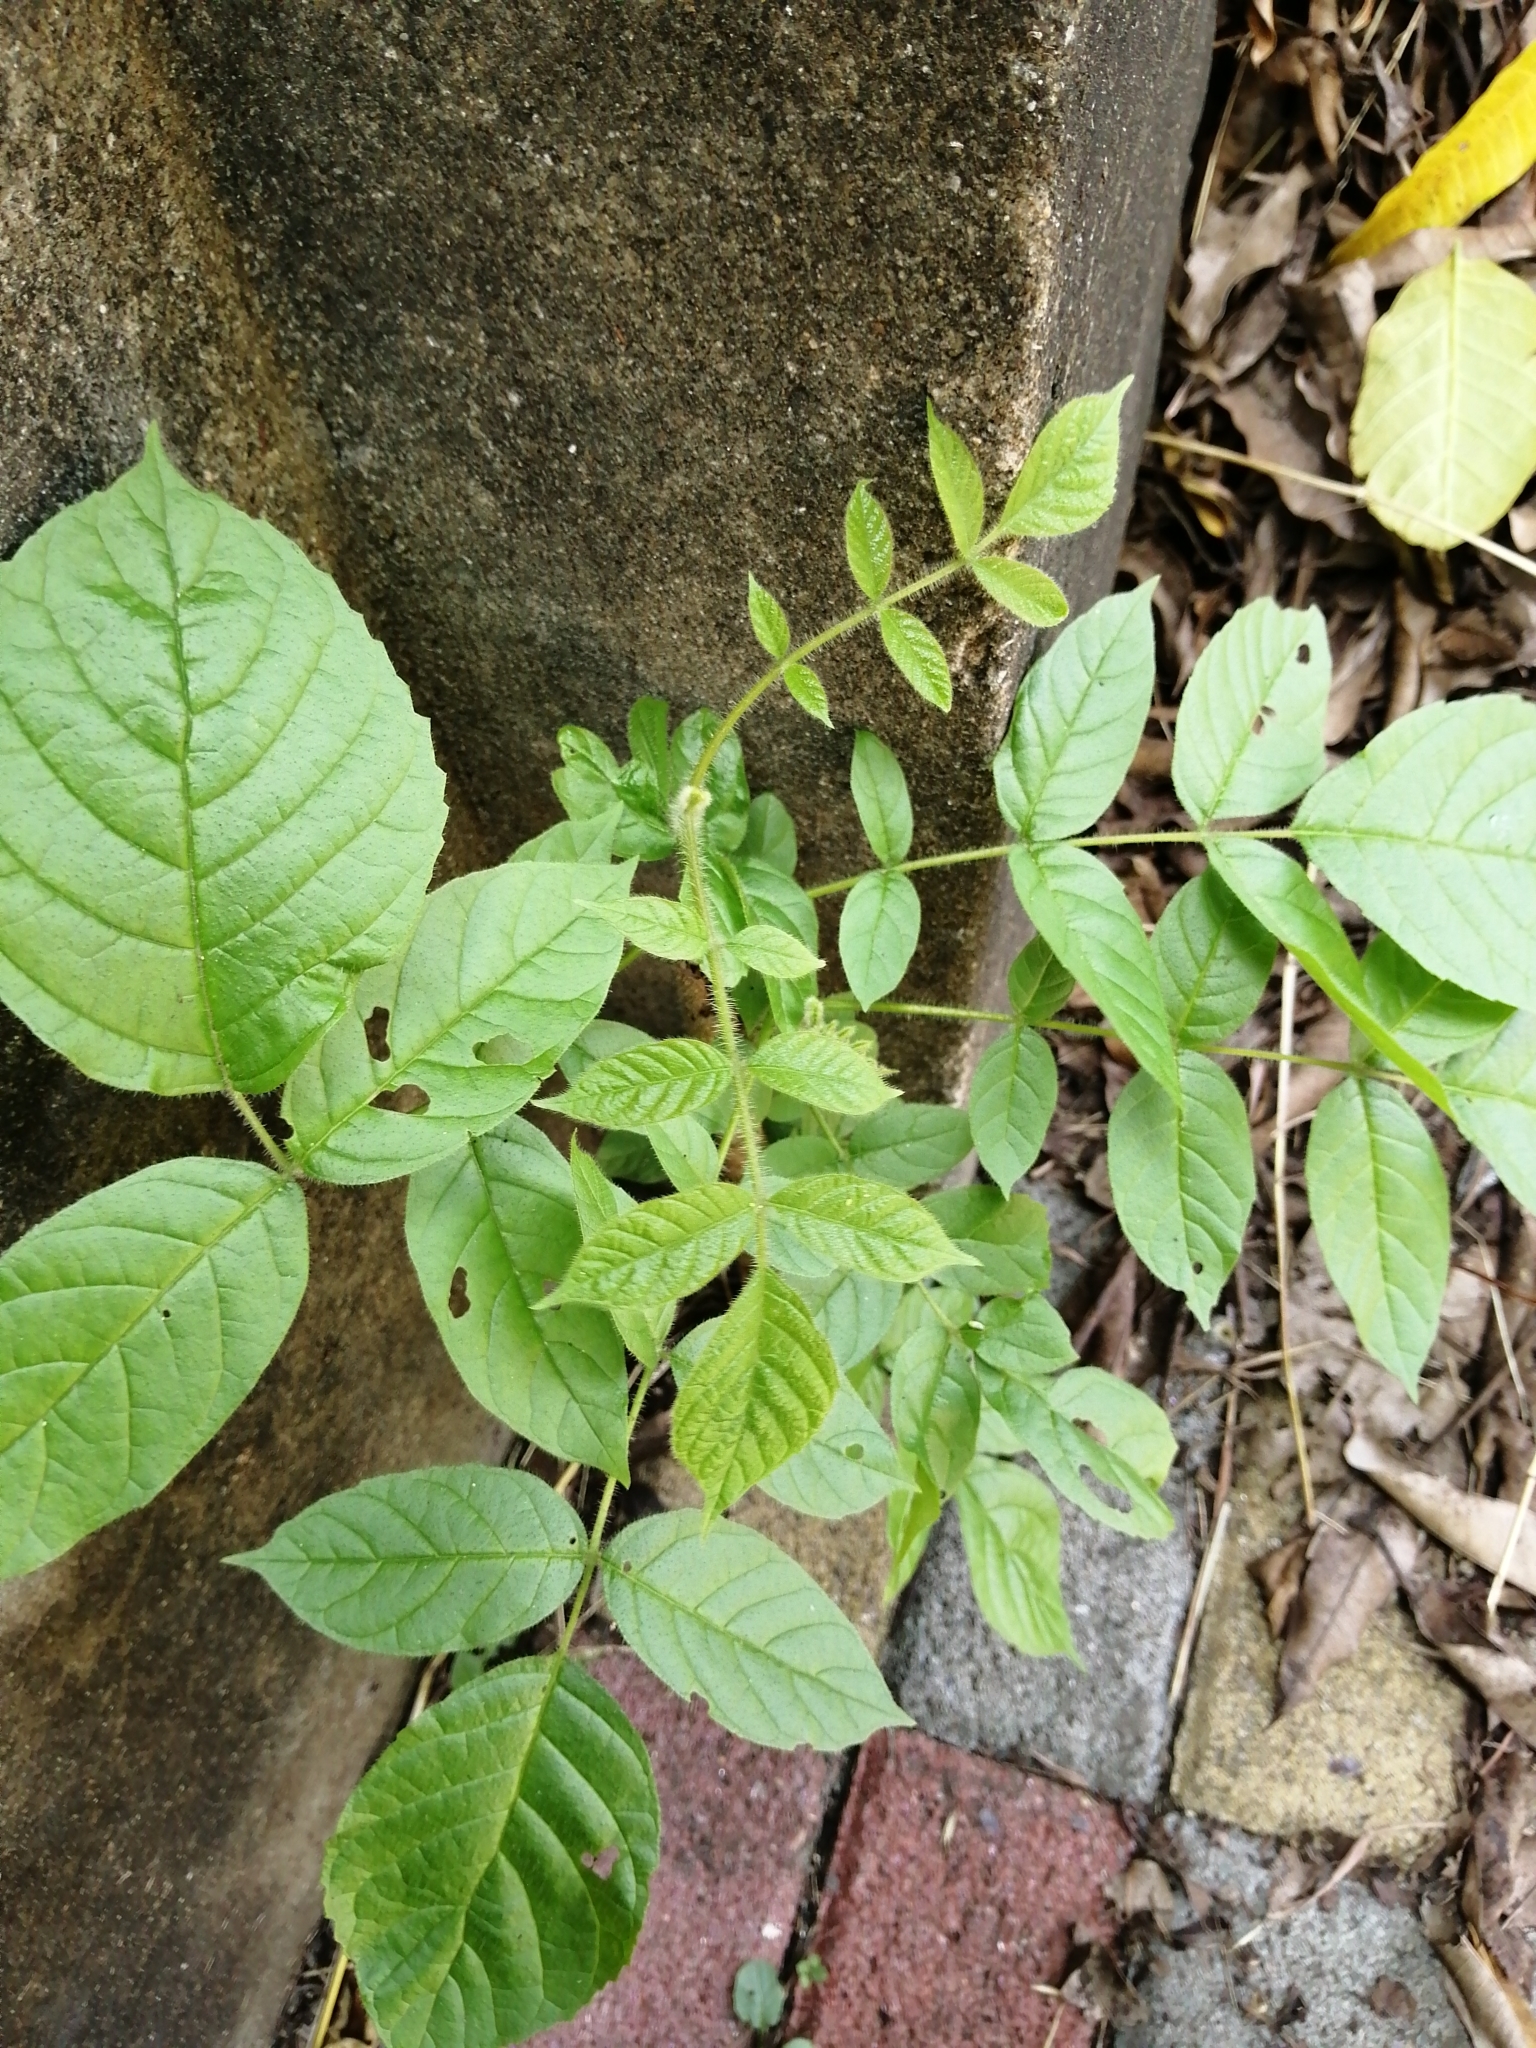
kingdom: Plantae
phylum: Tracheophyta
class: Magnoliopsida
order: Lamiales
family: Bignoniaceae
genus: Spathodea
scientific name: Spathodea campanulata
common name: African tuliptree
